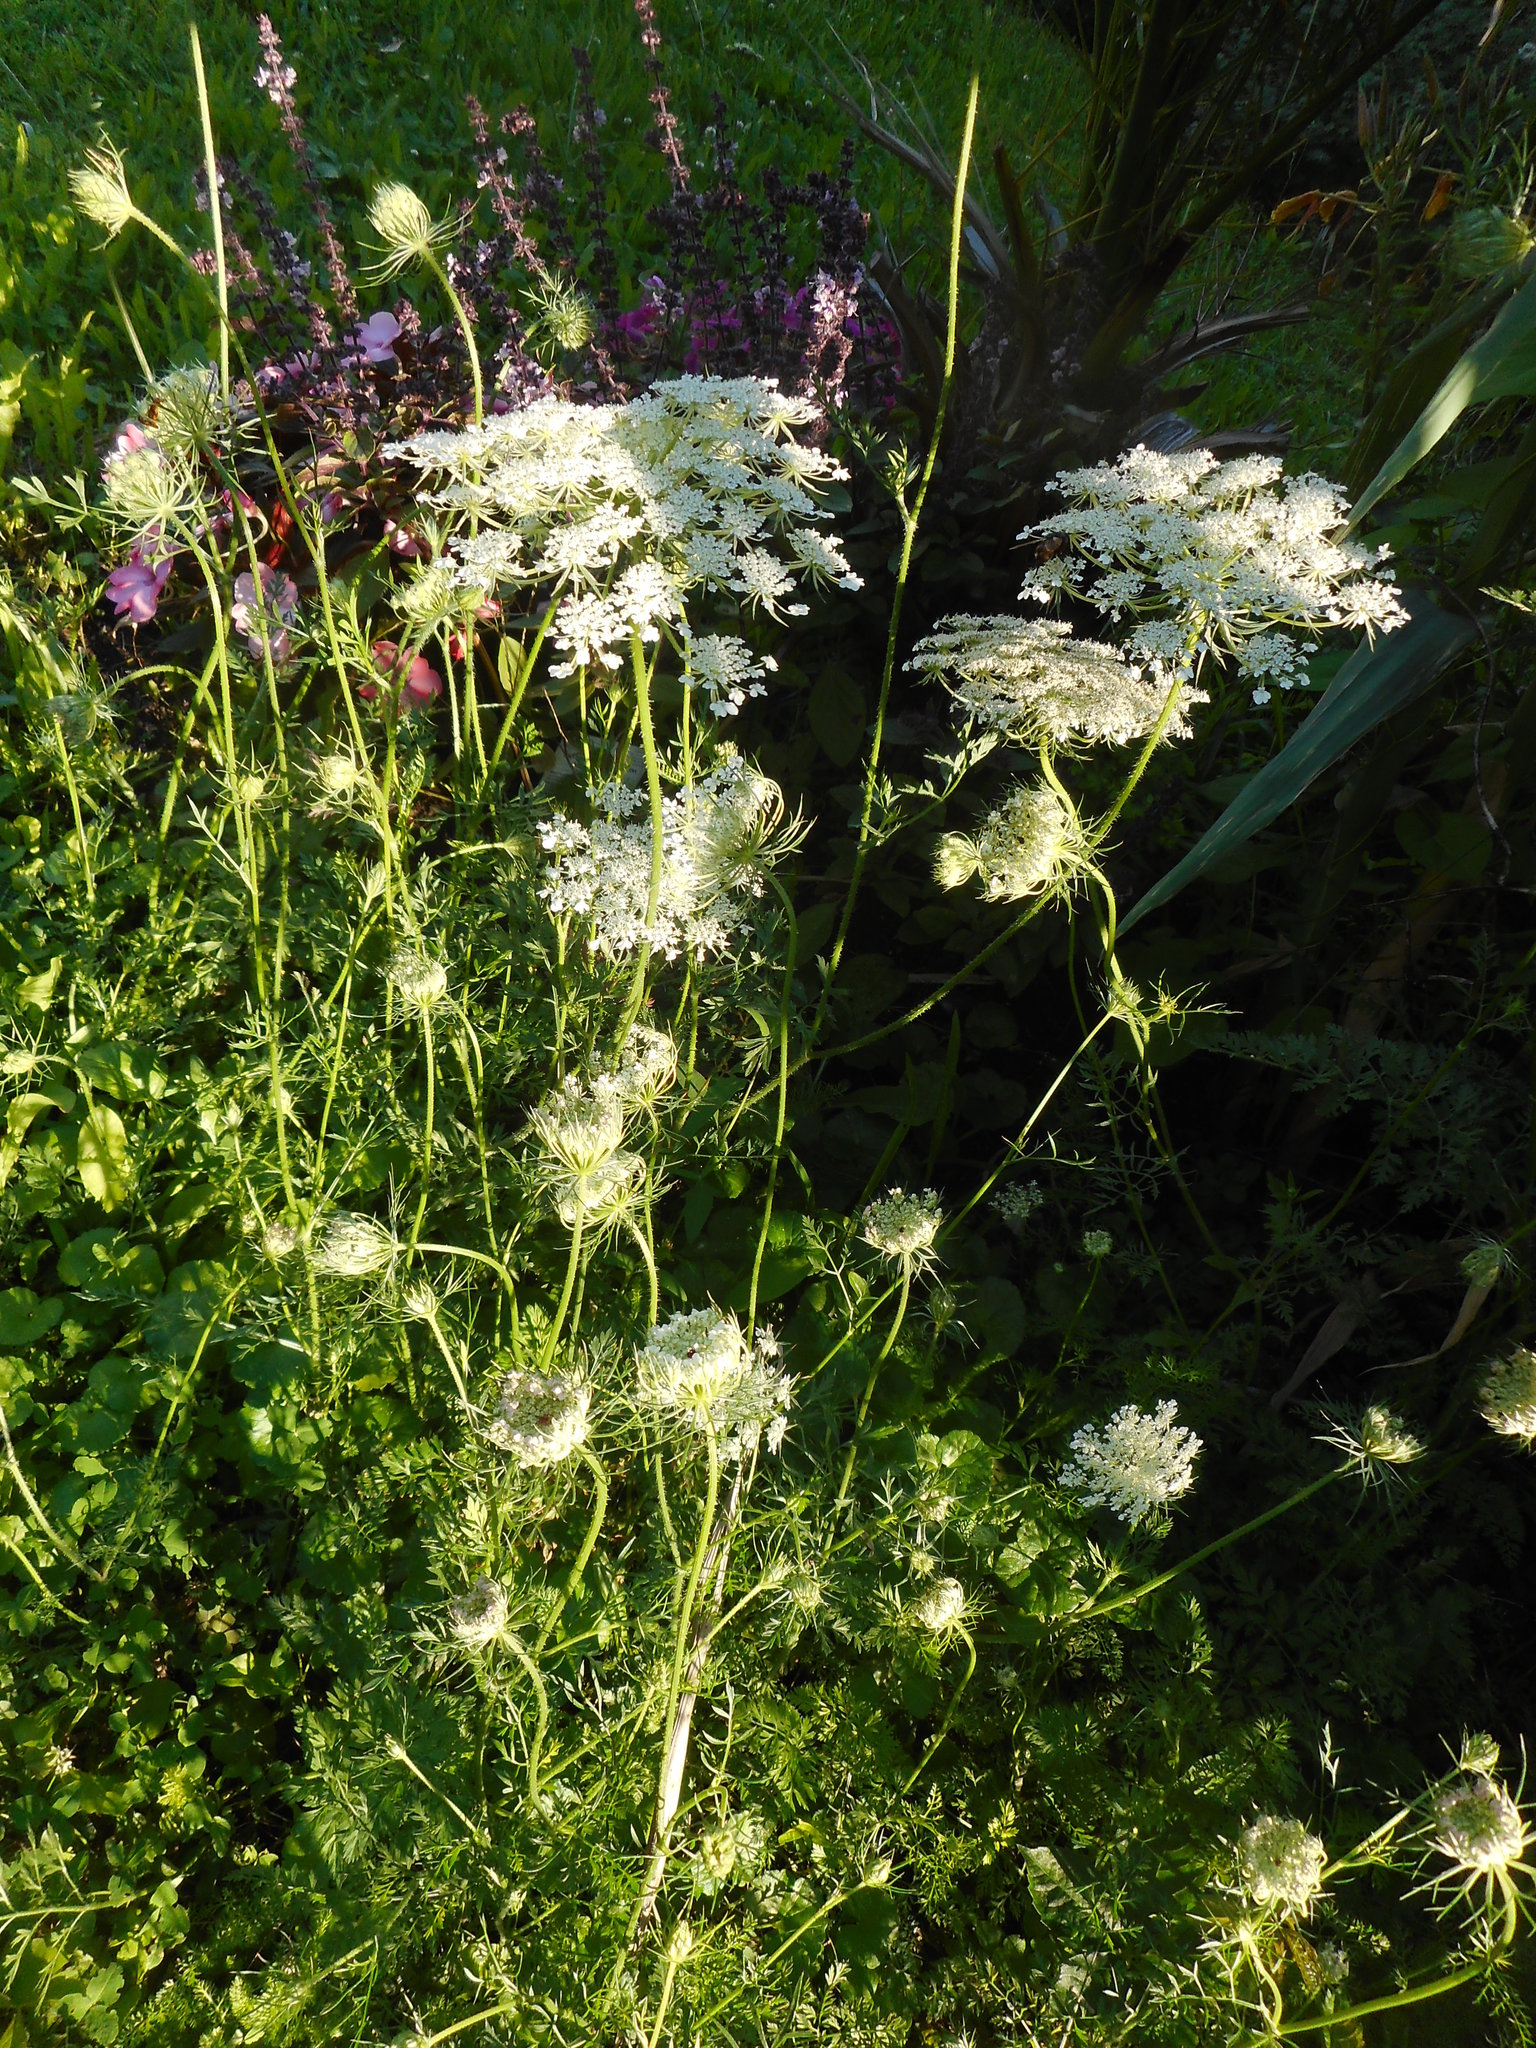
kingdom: Plantae
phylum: Tracheophyta
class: Magnoliopsida
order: Apiales
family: Apiaceae
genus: Daucus
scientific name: Daucus carota
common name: Wild carrot
